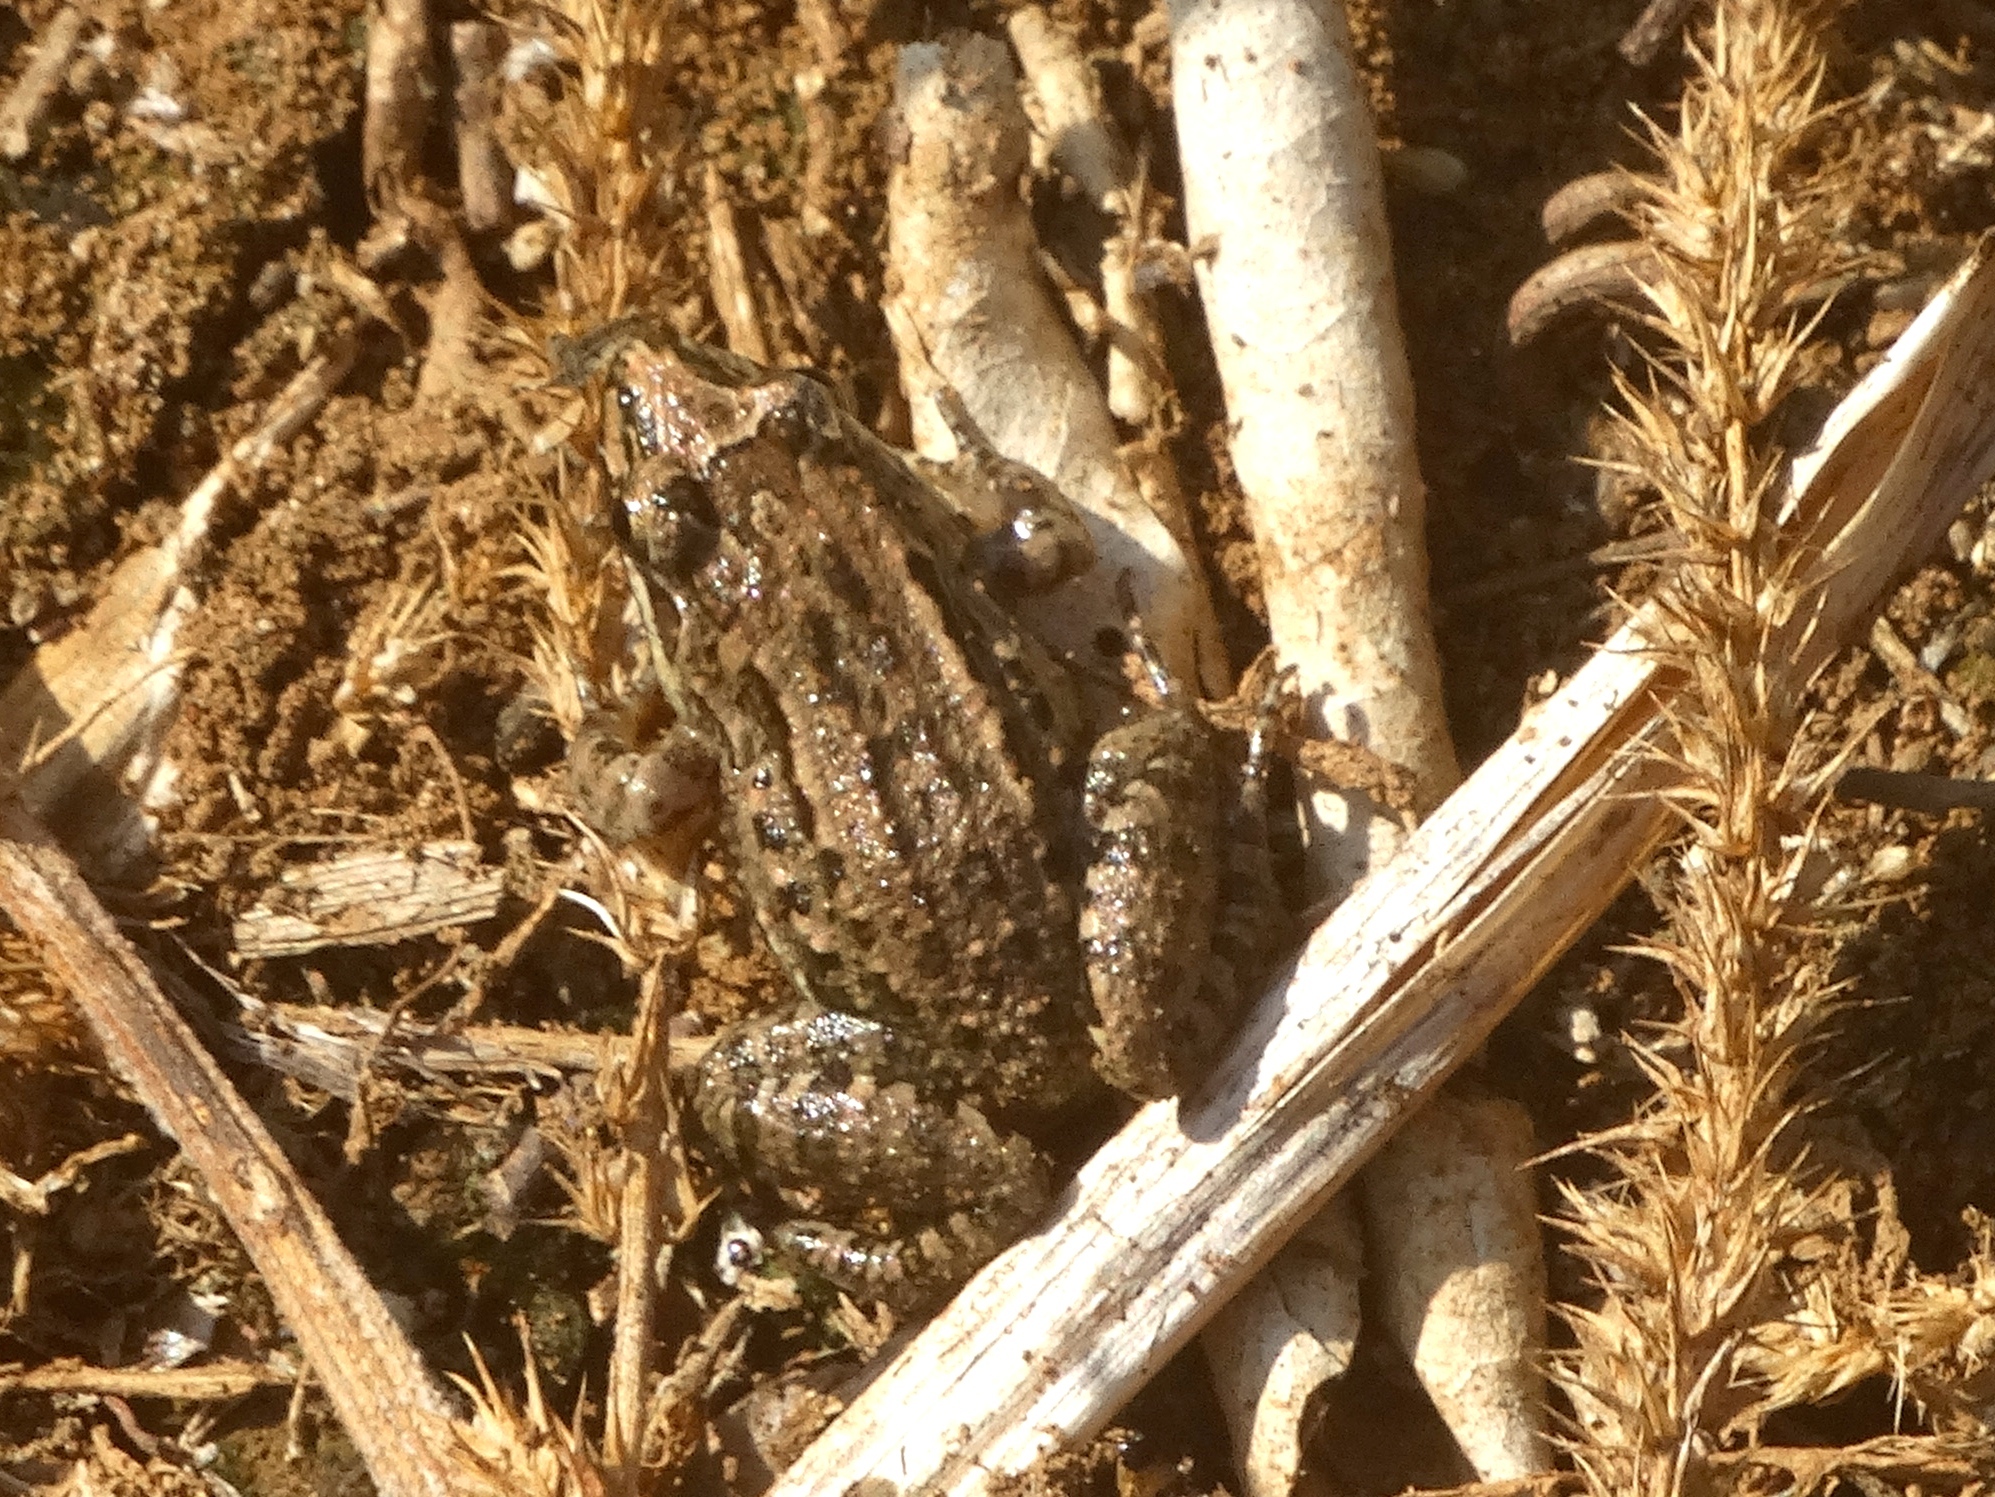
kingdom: Animalia
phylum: Chordata
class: Amphibia
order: Anura
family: Leptodactylidae
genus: Leptodactylus
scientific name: Leptodactylus melanonotus
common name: Fringe-toed foamfrog
